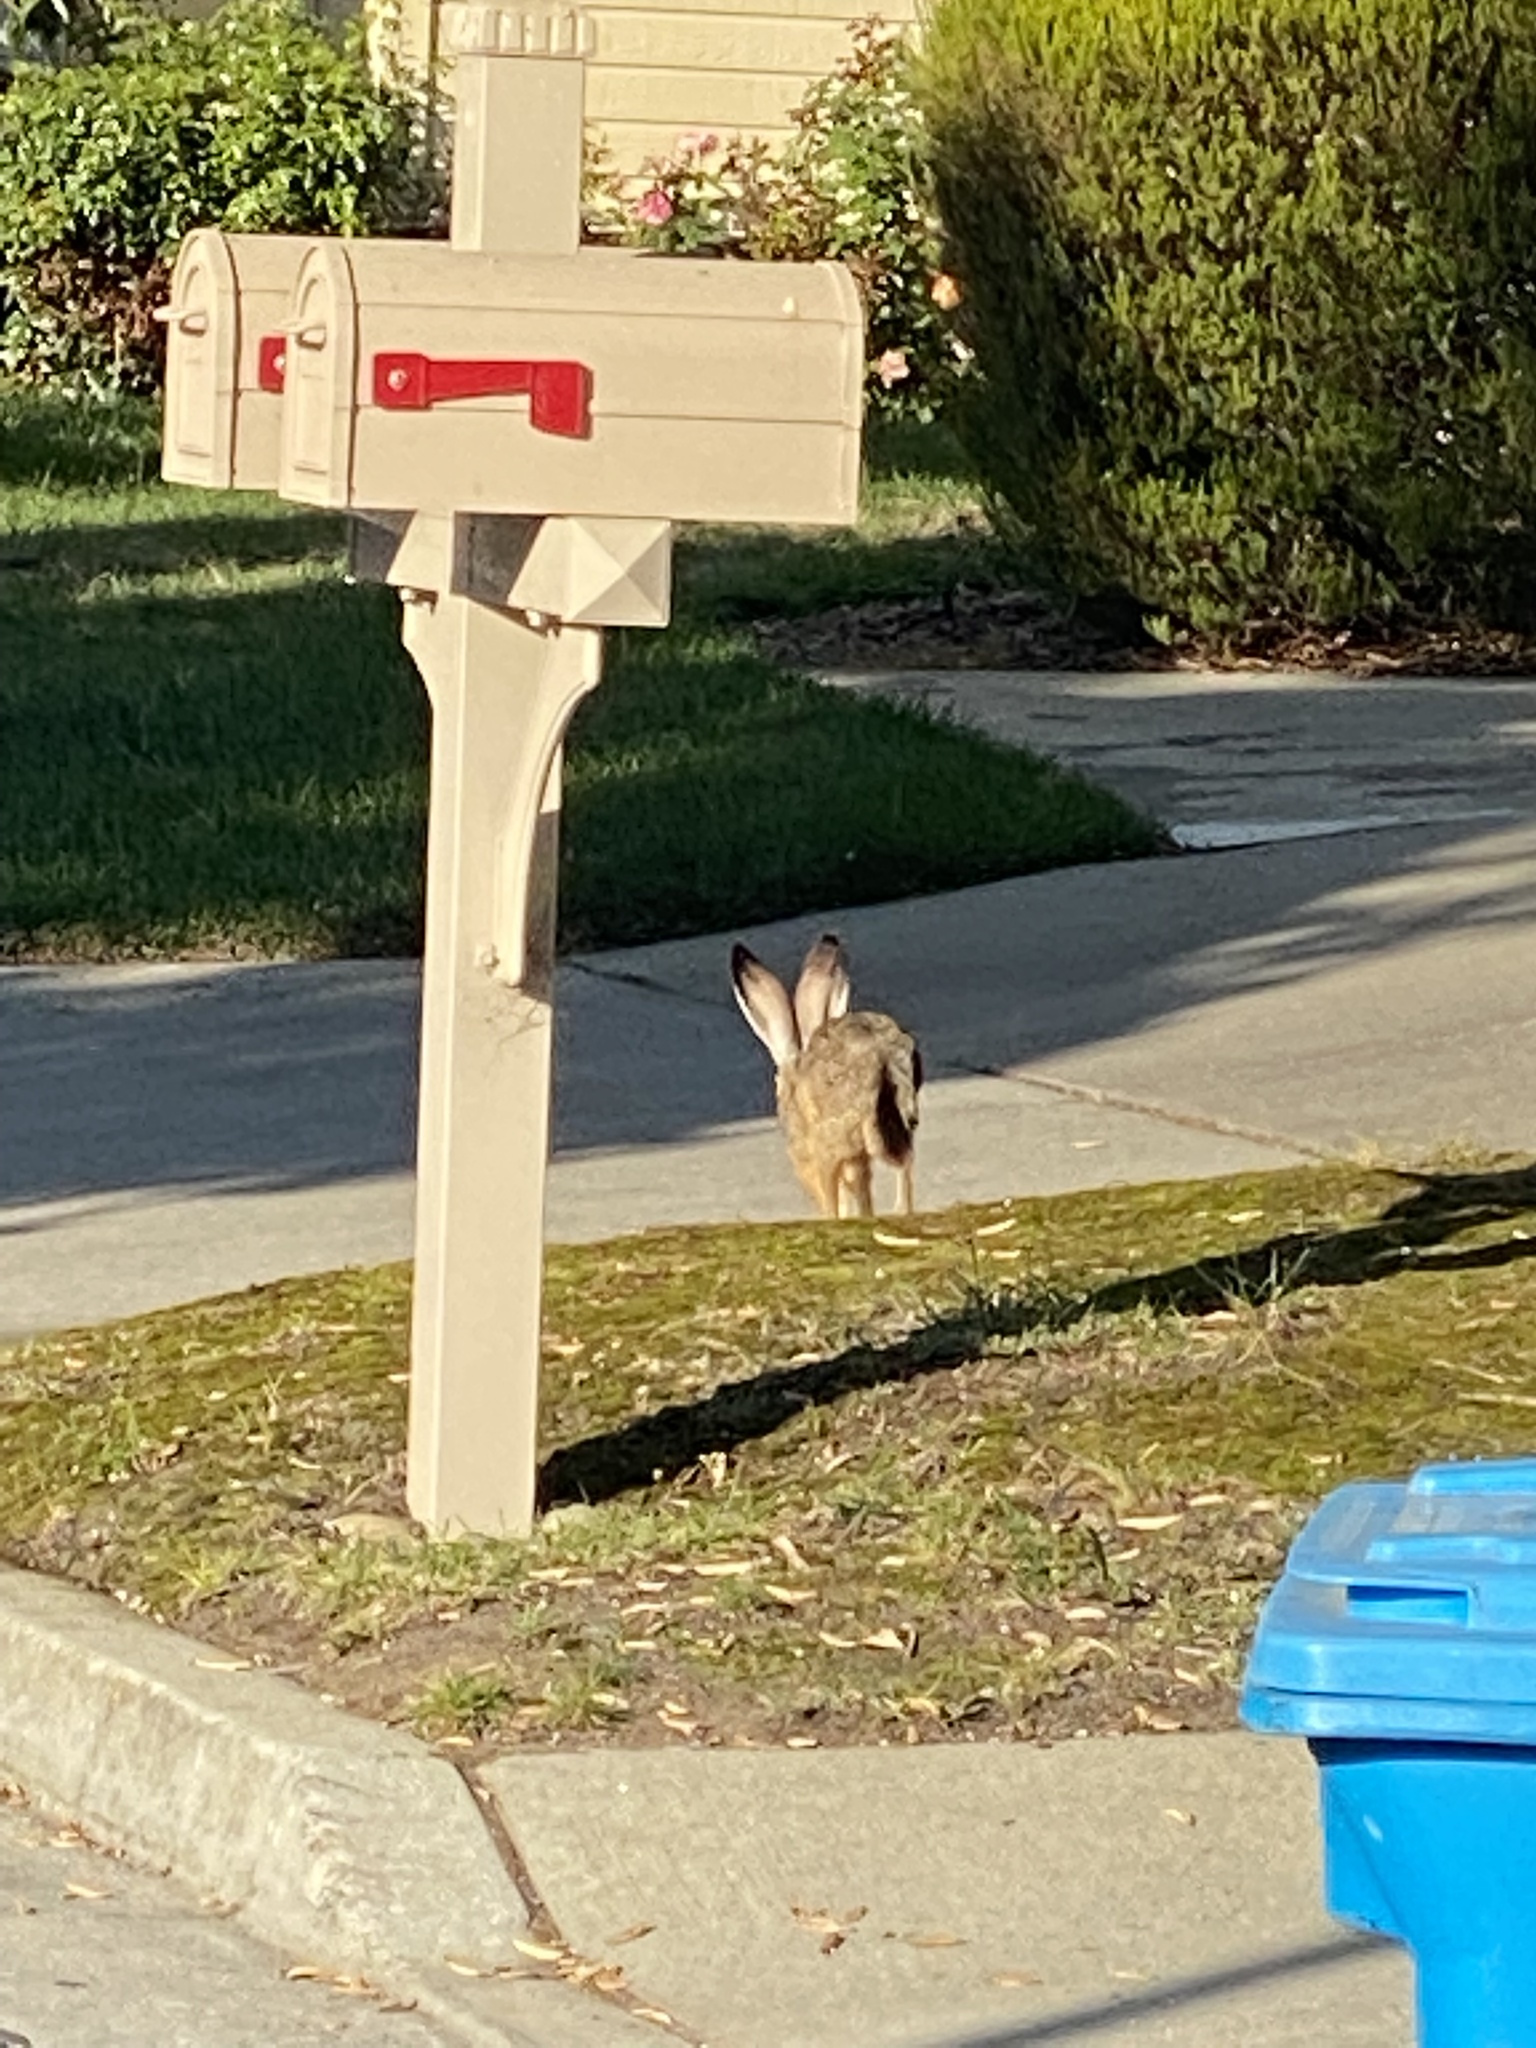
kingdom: Animalia
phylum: Chordata
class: Mammalia
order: Lagomorpha
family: Leporidae
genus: Lepus
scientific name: Lepus californicus
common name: Black-tailed jackrabbit
